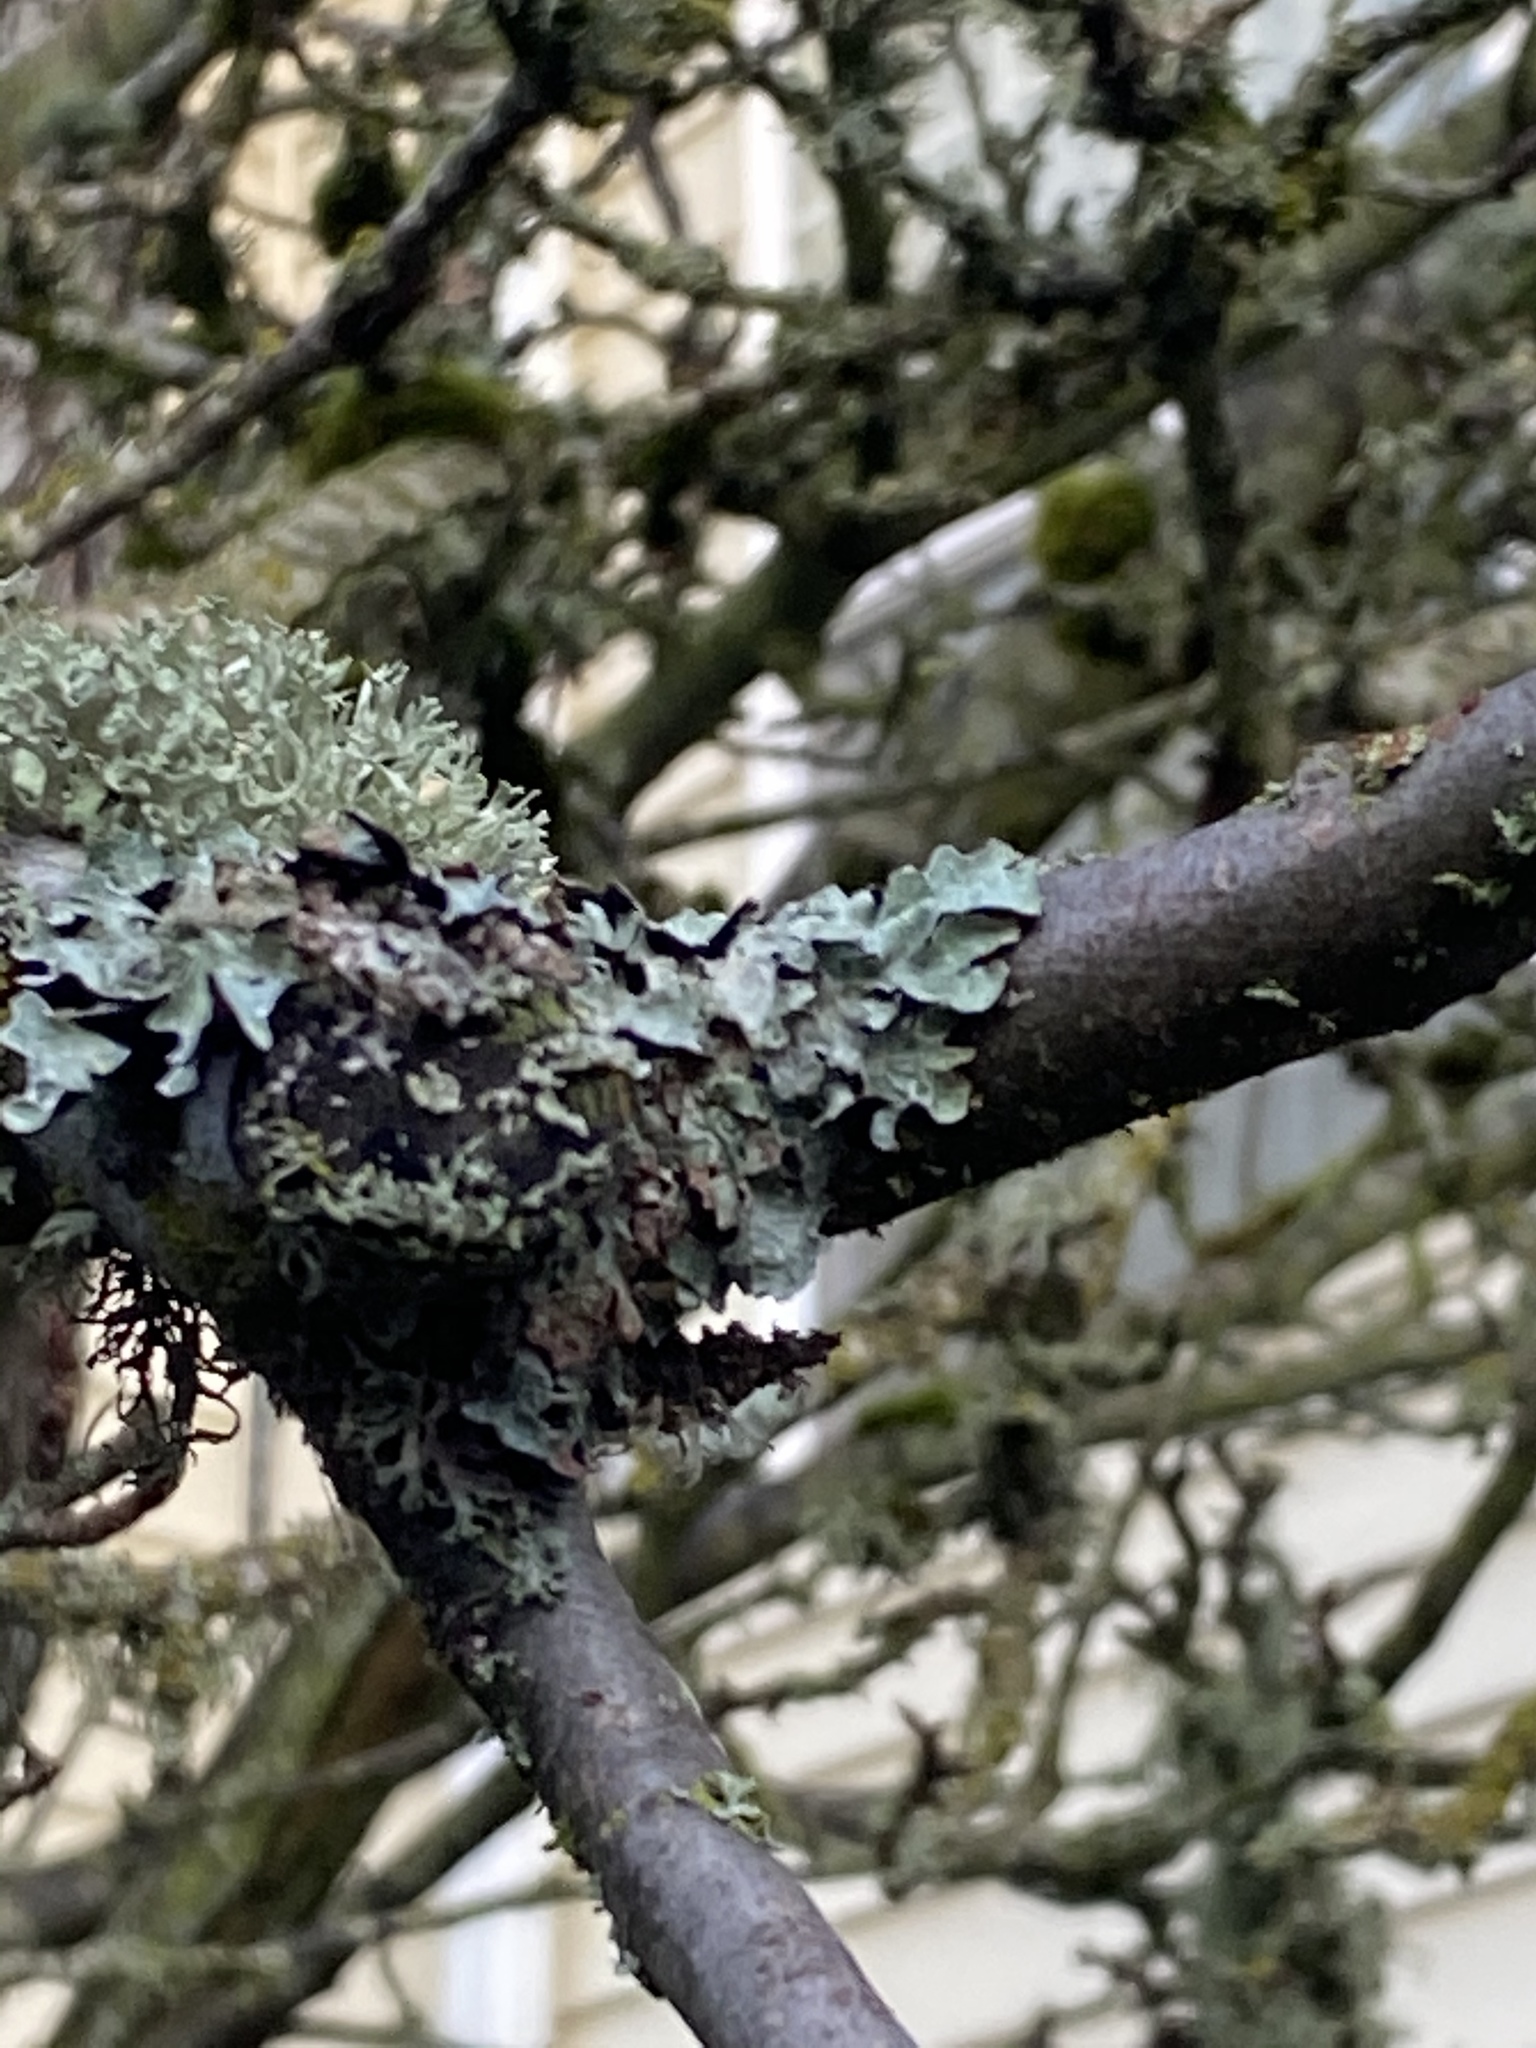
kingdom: Fungi
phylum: Ascomycota
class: Lecanoromycetes
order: Lecanorales
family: Parmeliaceae
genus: Parmelia
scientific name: Parmelia sulcata
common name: Netted shield lichen
